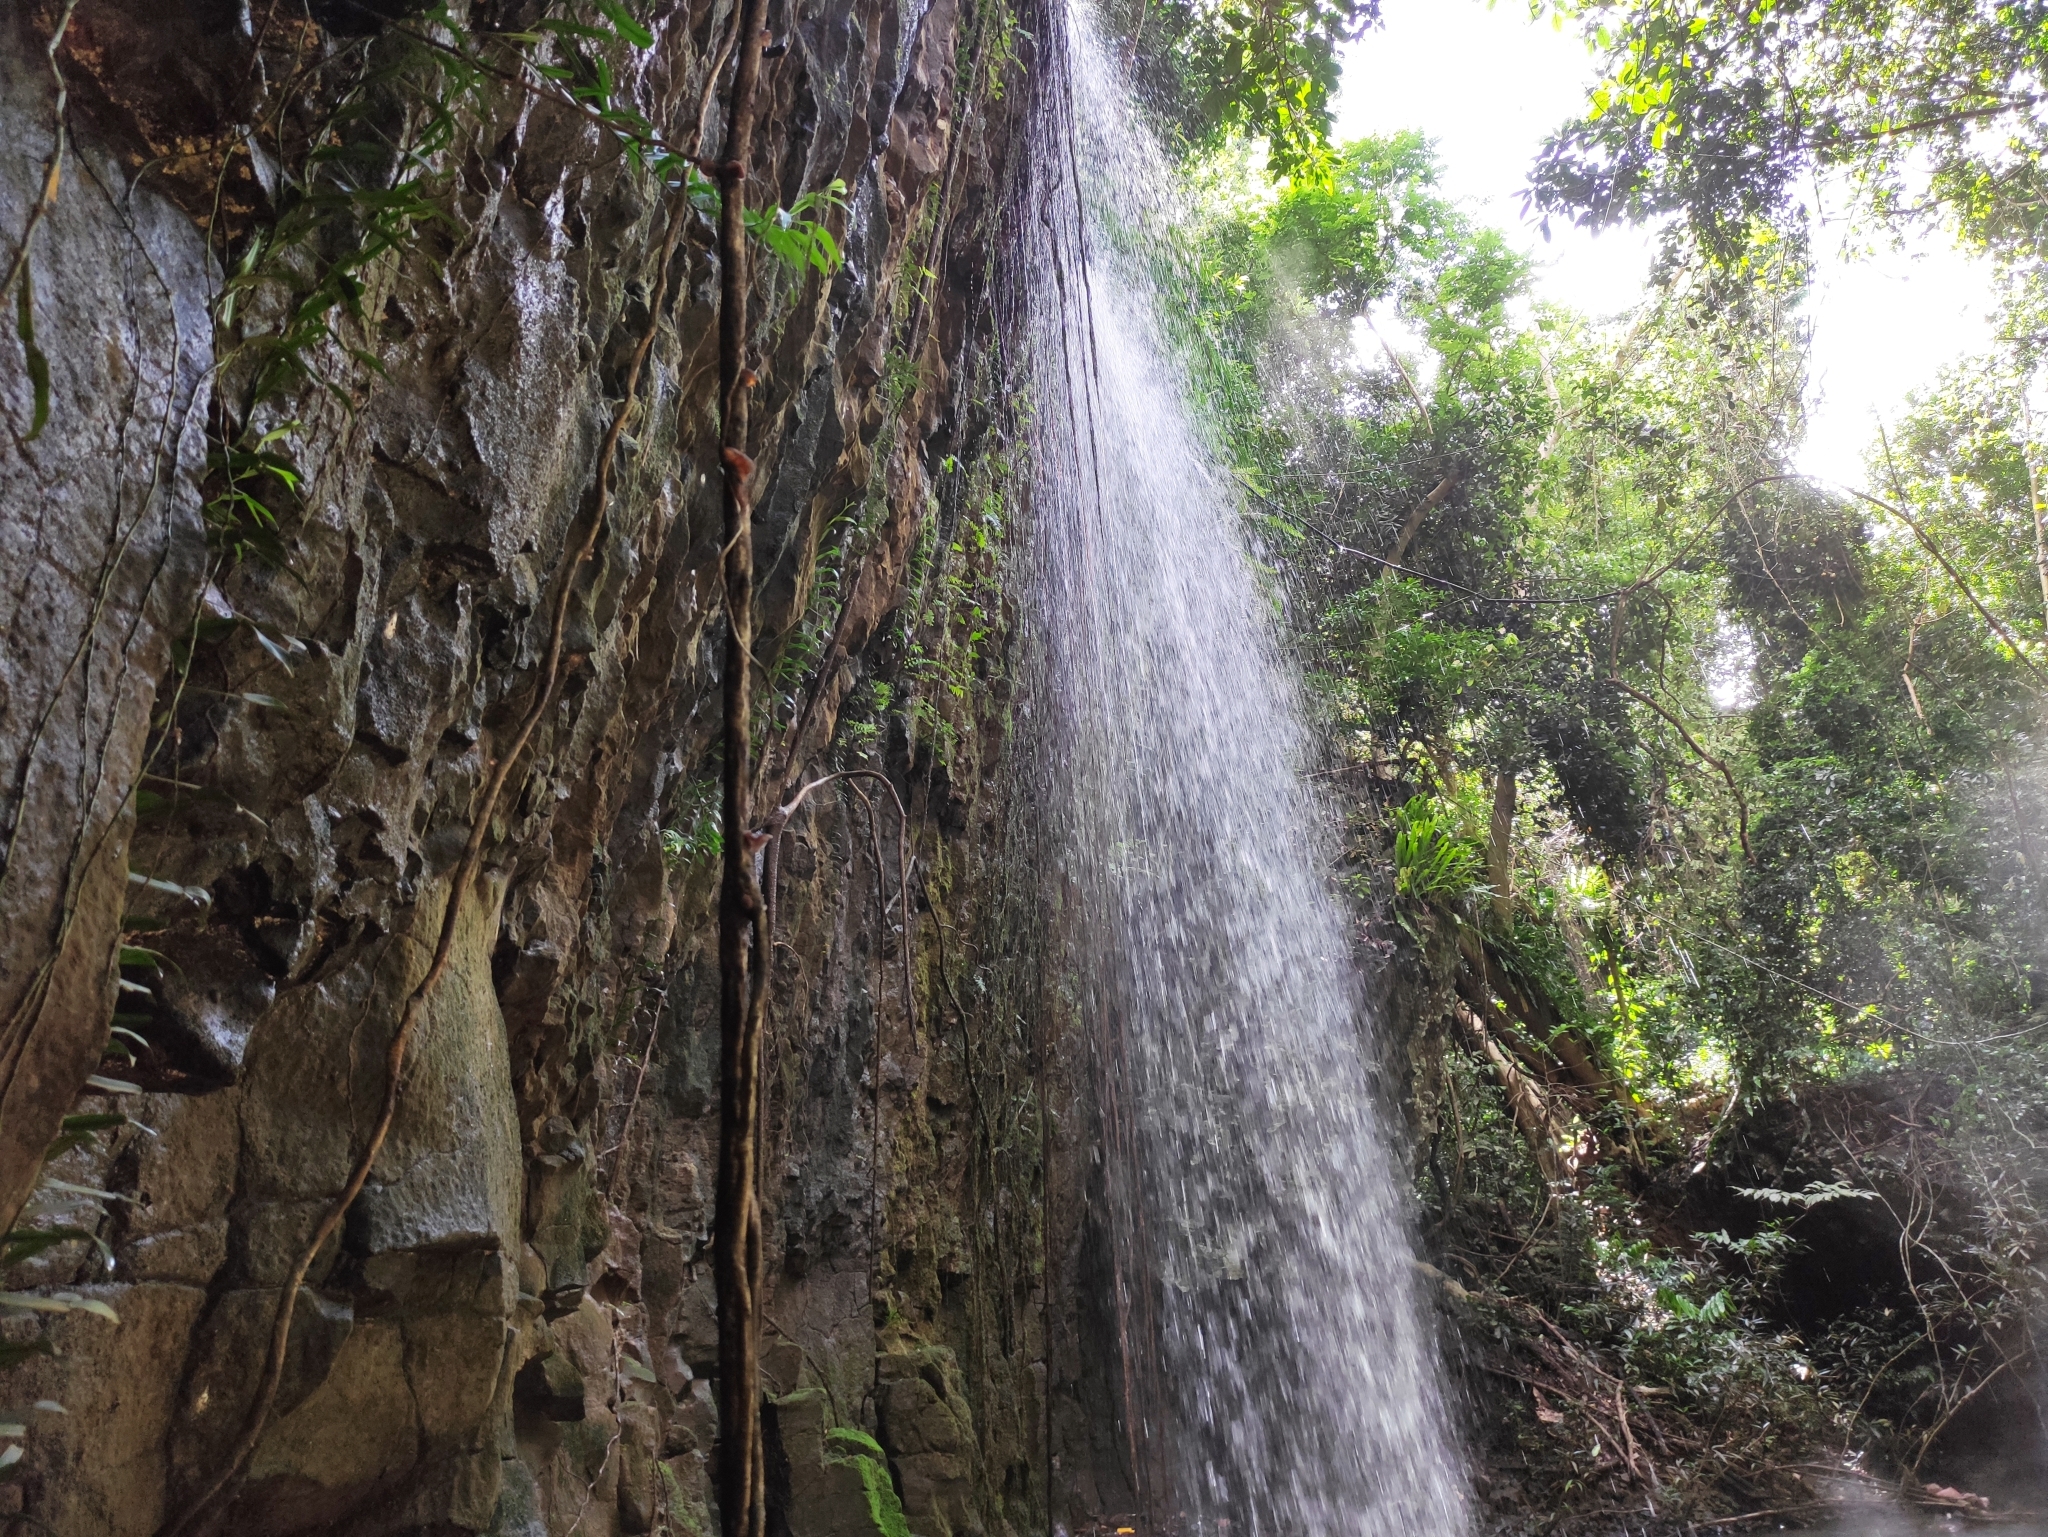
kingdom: Plantae
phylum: Tracheophyta
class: Liliopsida
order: Alismatales
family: Araceae
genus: Pothos
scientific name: Pothos scandens
